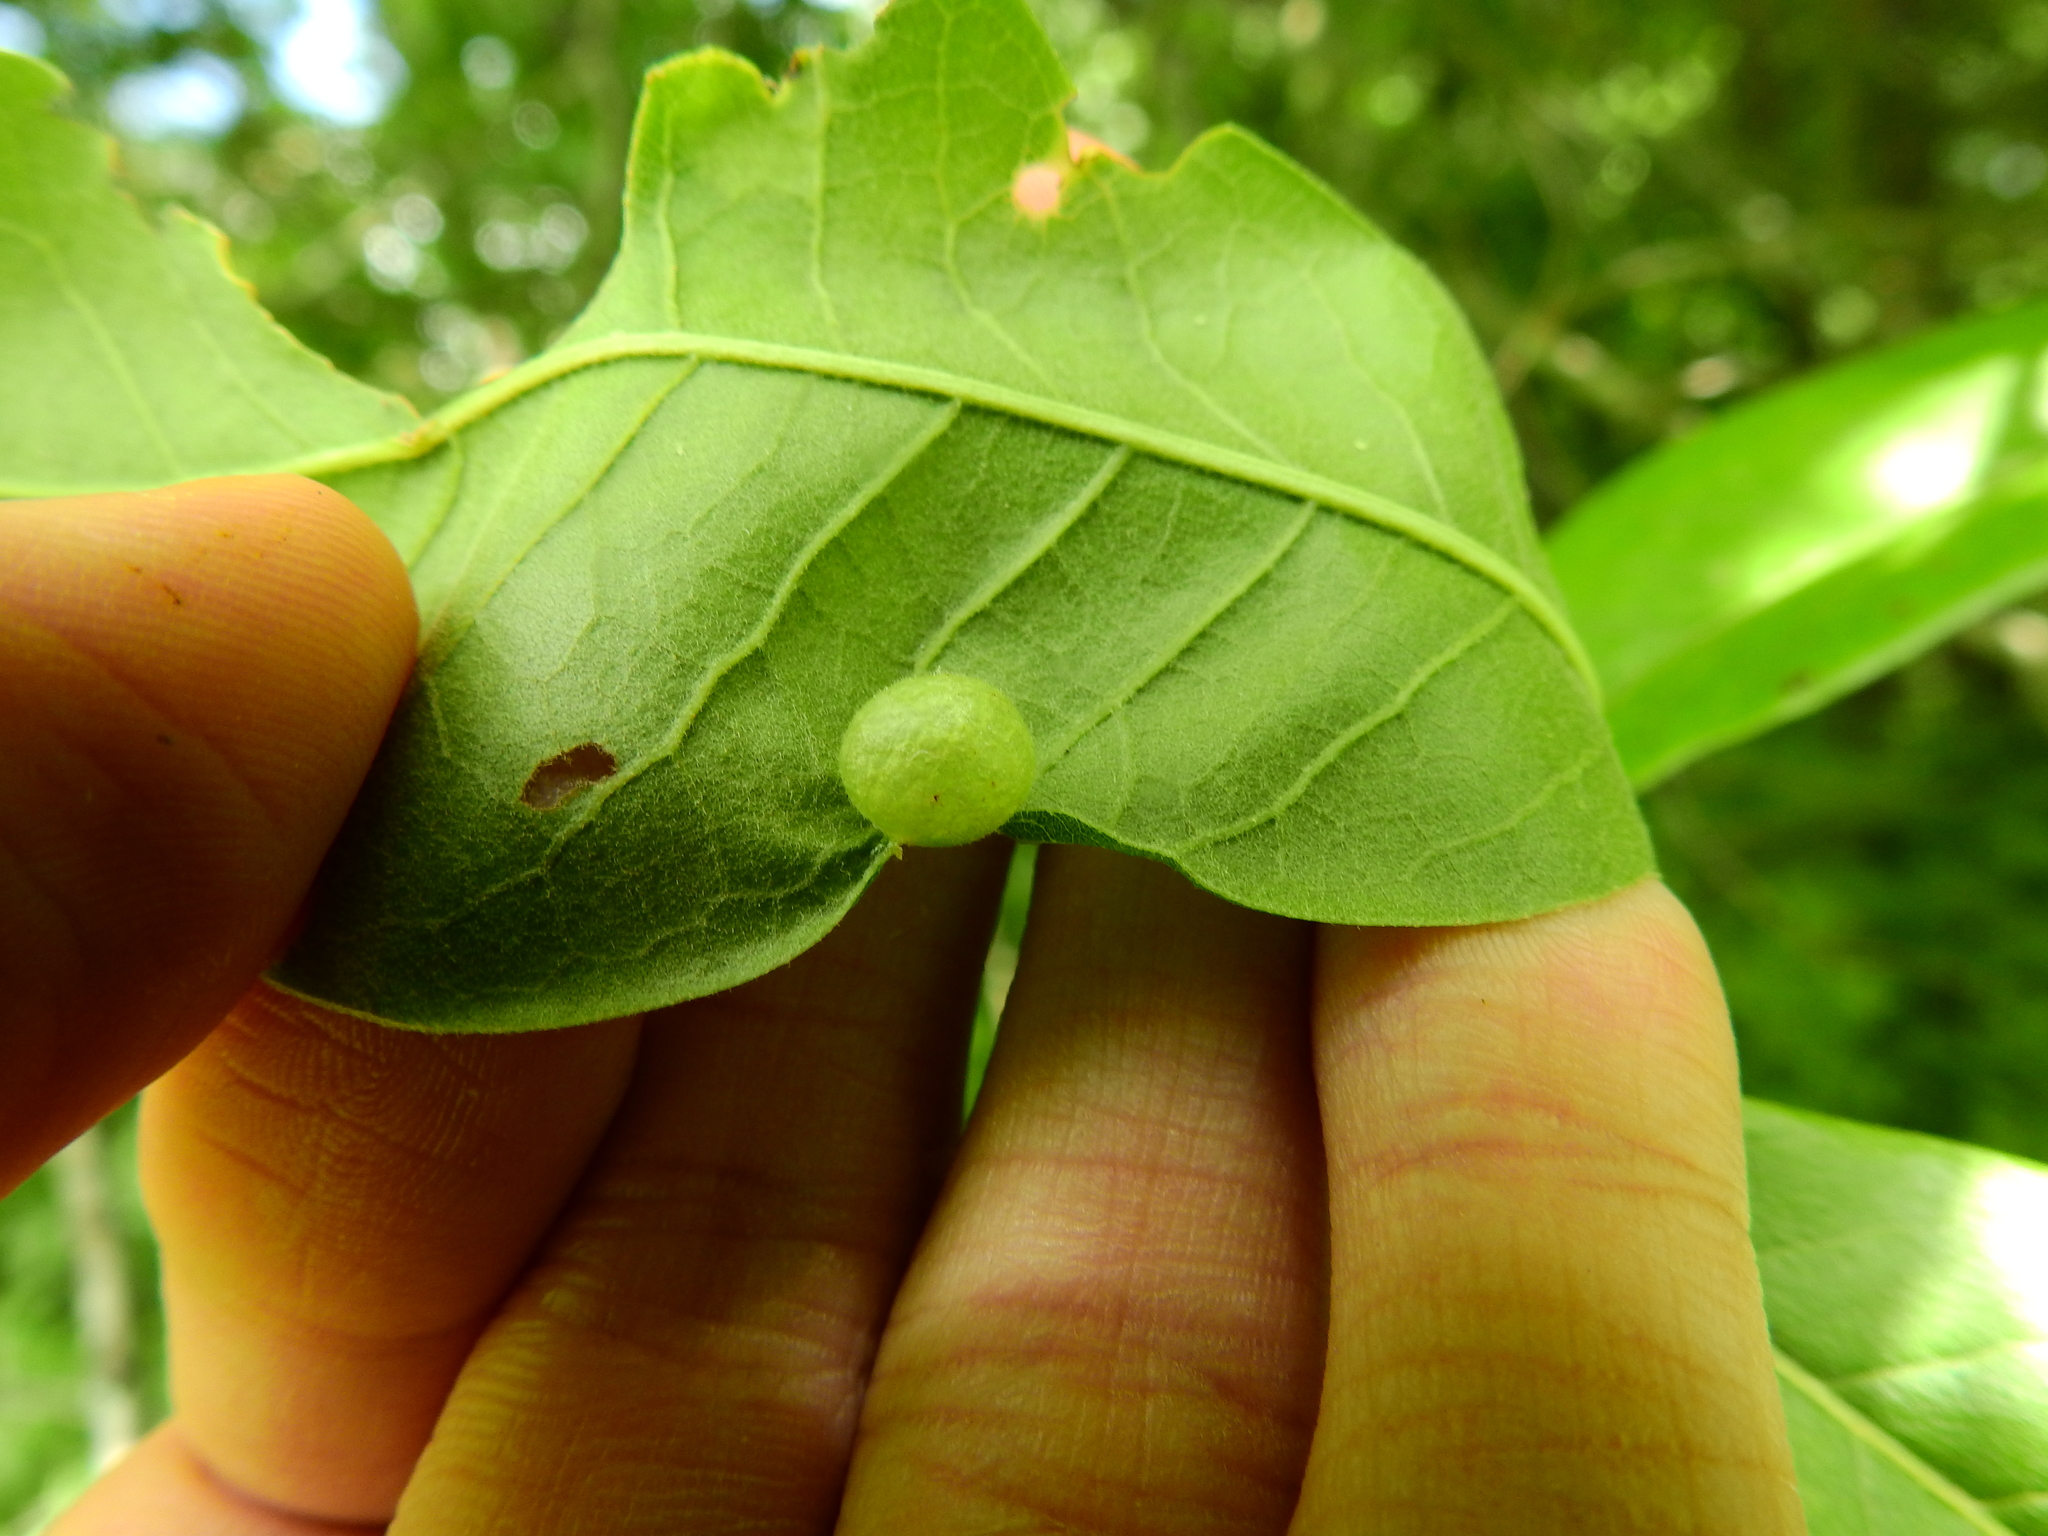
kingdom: Animalia
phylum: Arthropoda
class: Insecta
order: Hymenoptera
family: Cynipidae
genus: Amphibolips
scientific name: Amphibolips
